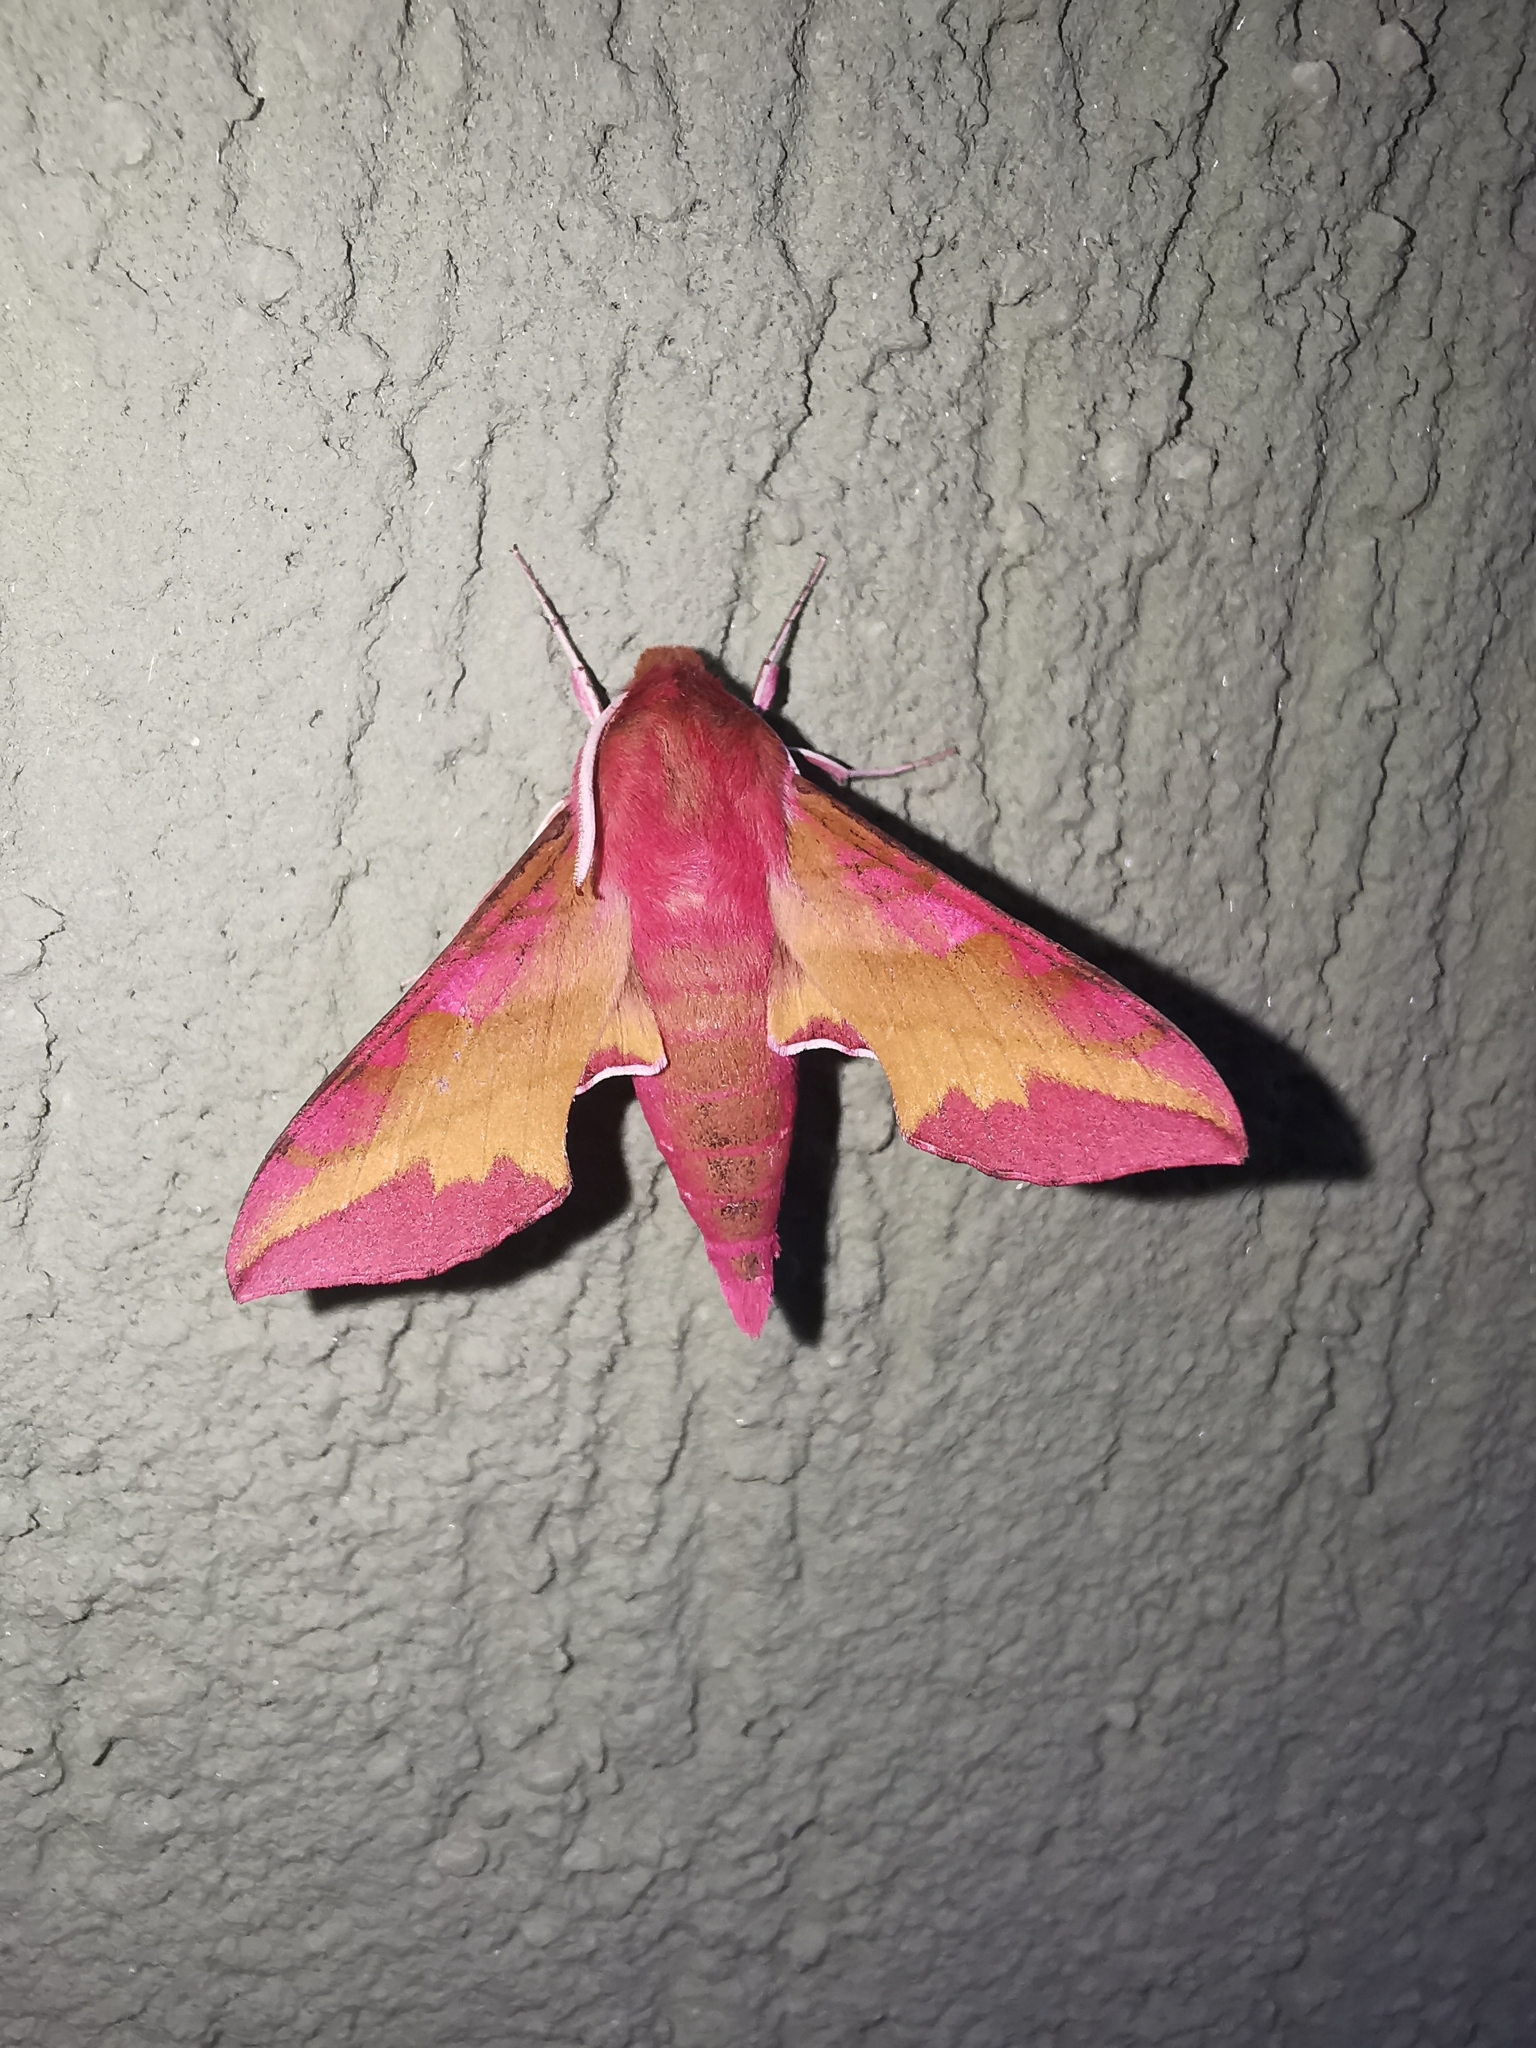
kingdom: Animalia
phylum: Arthropoda
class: Insecta
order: Lepidoptera
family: Sphingidae
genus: Deilephila
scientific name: Deilephila porcellus
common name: Small elephant hawk-moth
